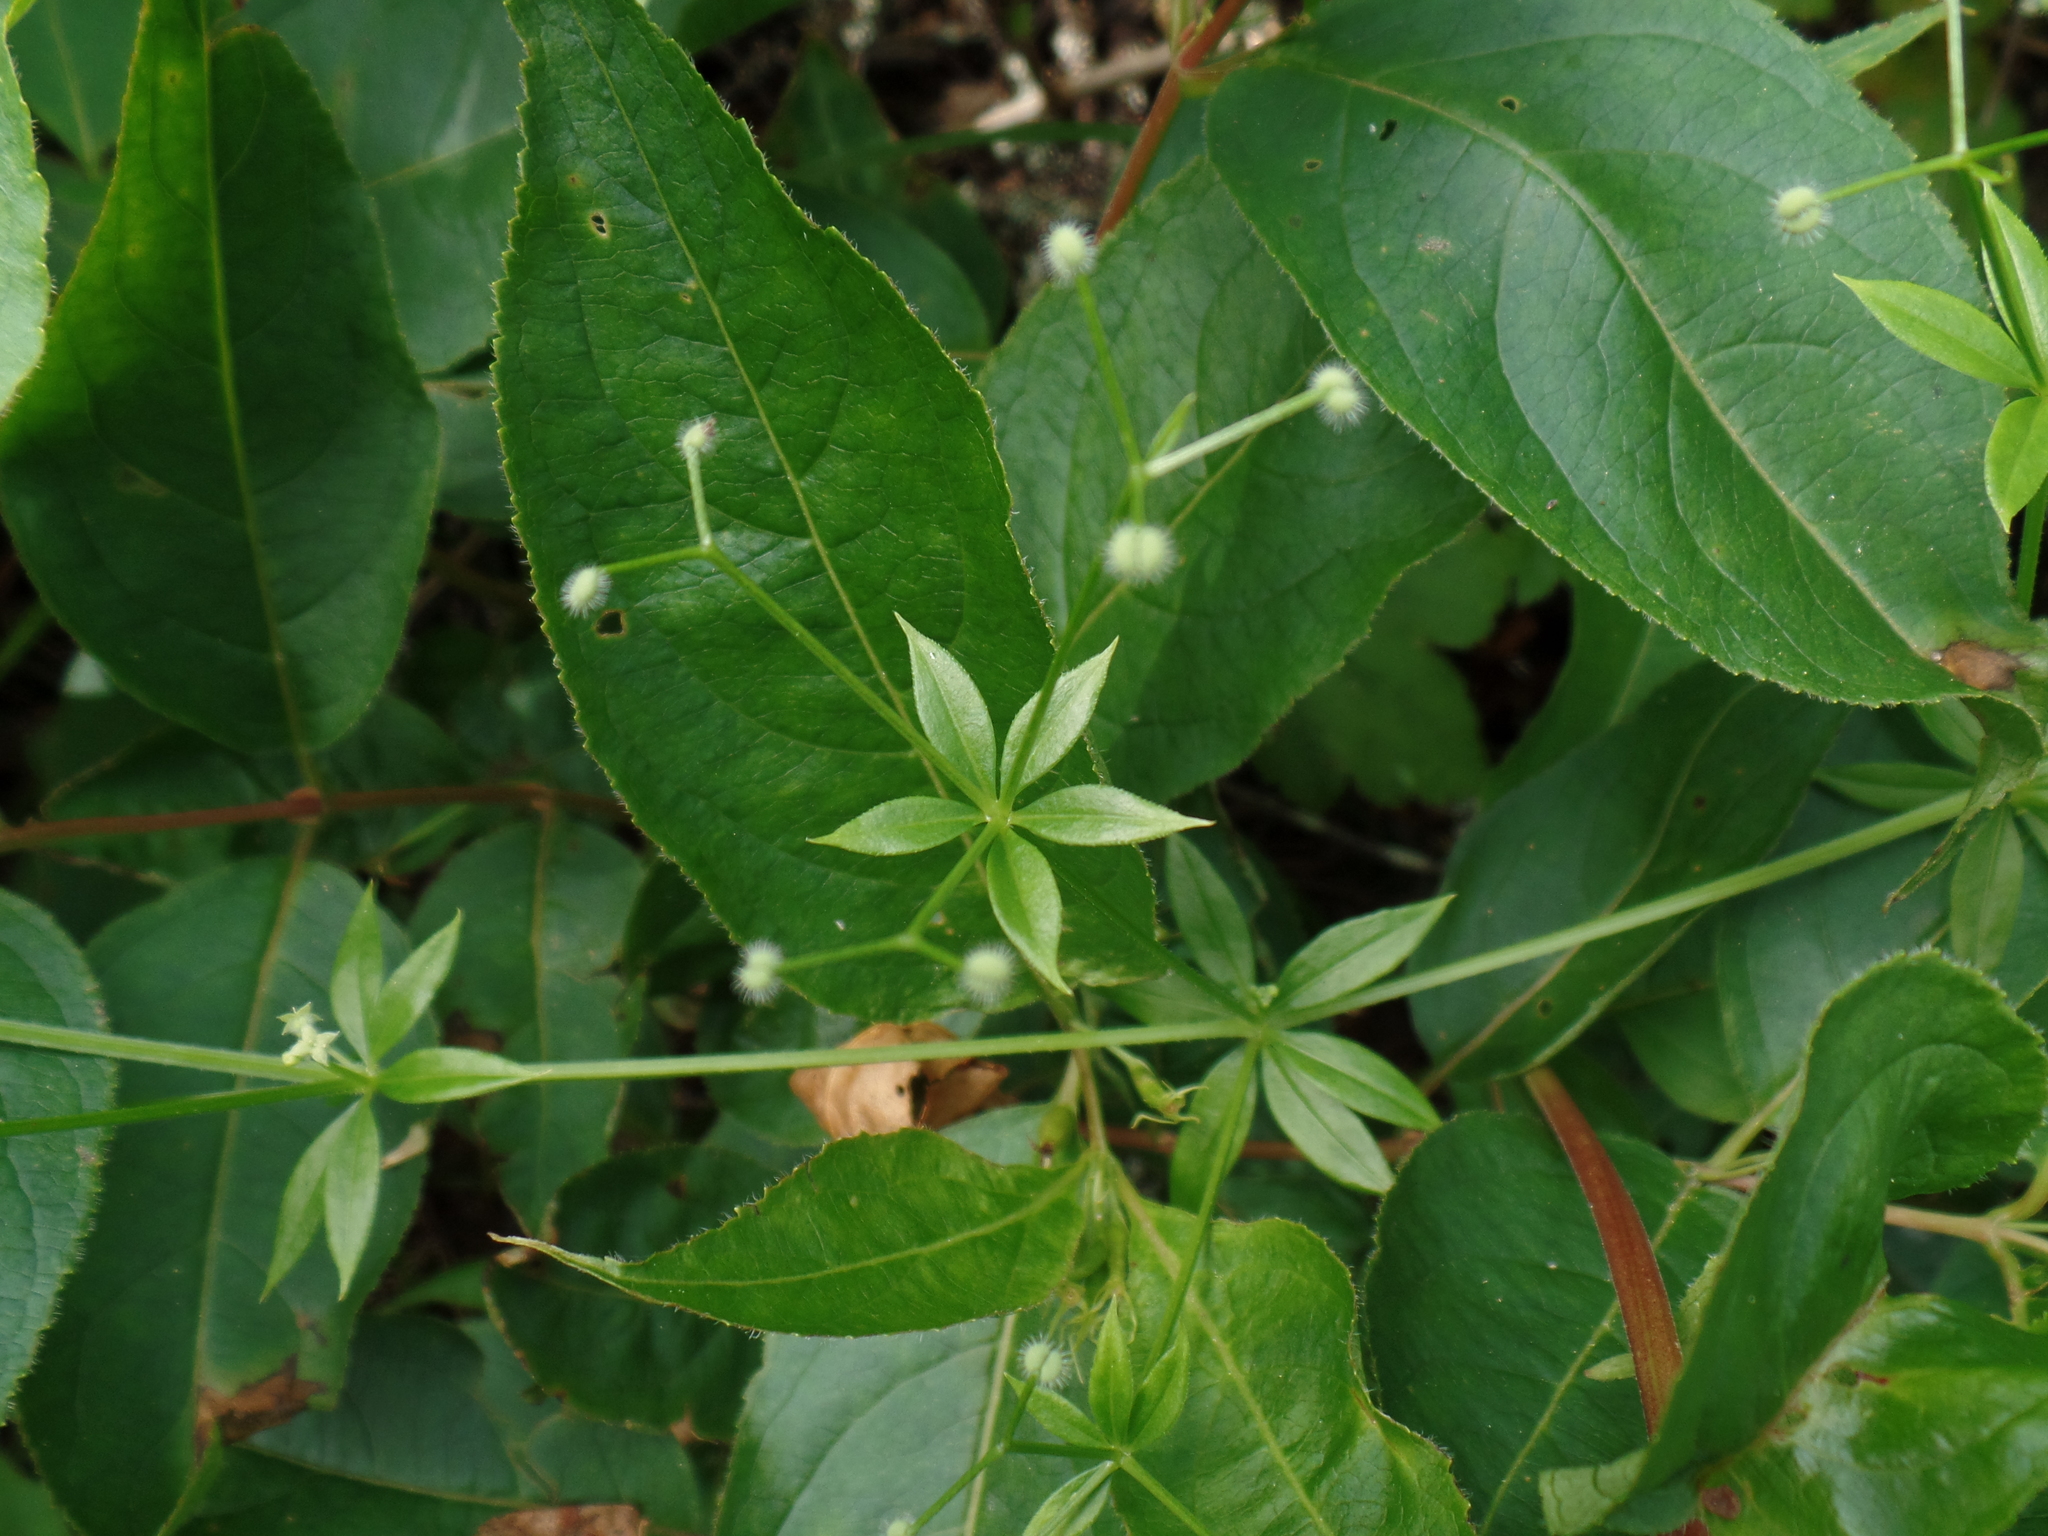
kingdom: Plantae
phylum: Tracheophyta
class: Magnoliopsida
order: Gentianales
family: Rubiaceae
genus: Galium
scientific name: Galium triflorum
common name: Fragrant bedstraw
